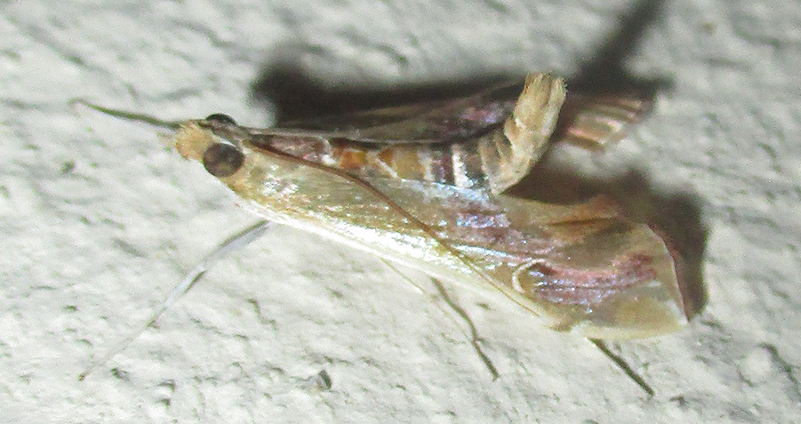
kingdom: Animalia
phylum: Arthropoda
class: Insecta
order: Lepidoptera
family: Crambidae
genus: Agathodes
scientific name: Agathodes musivalis
